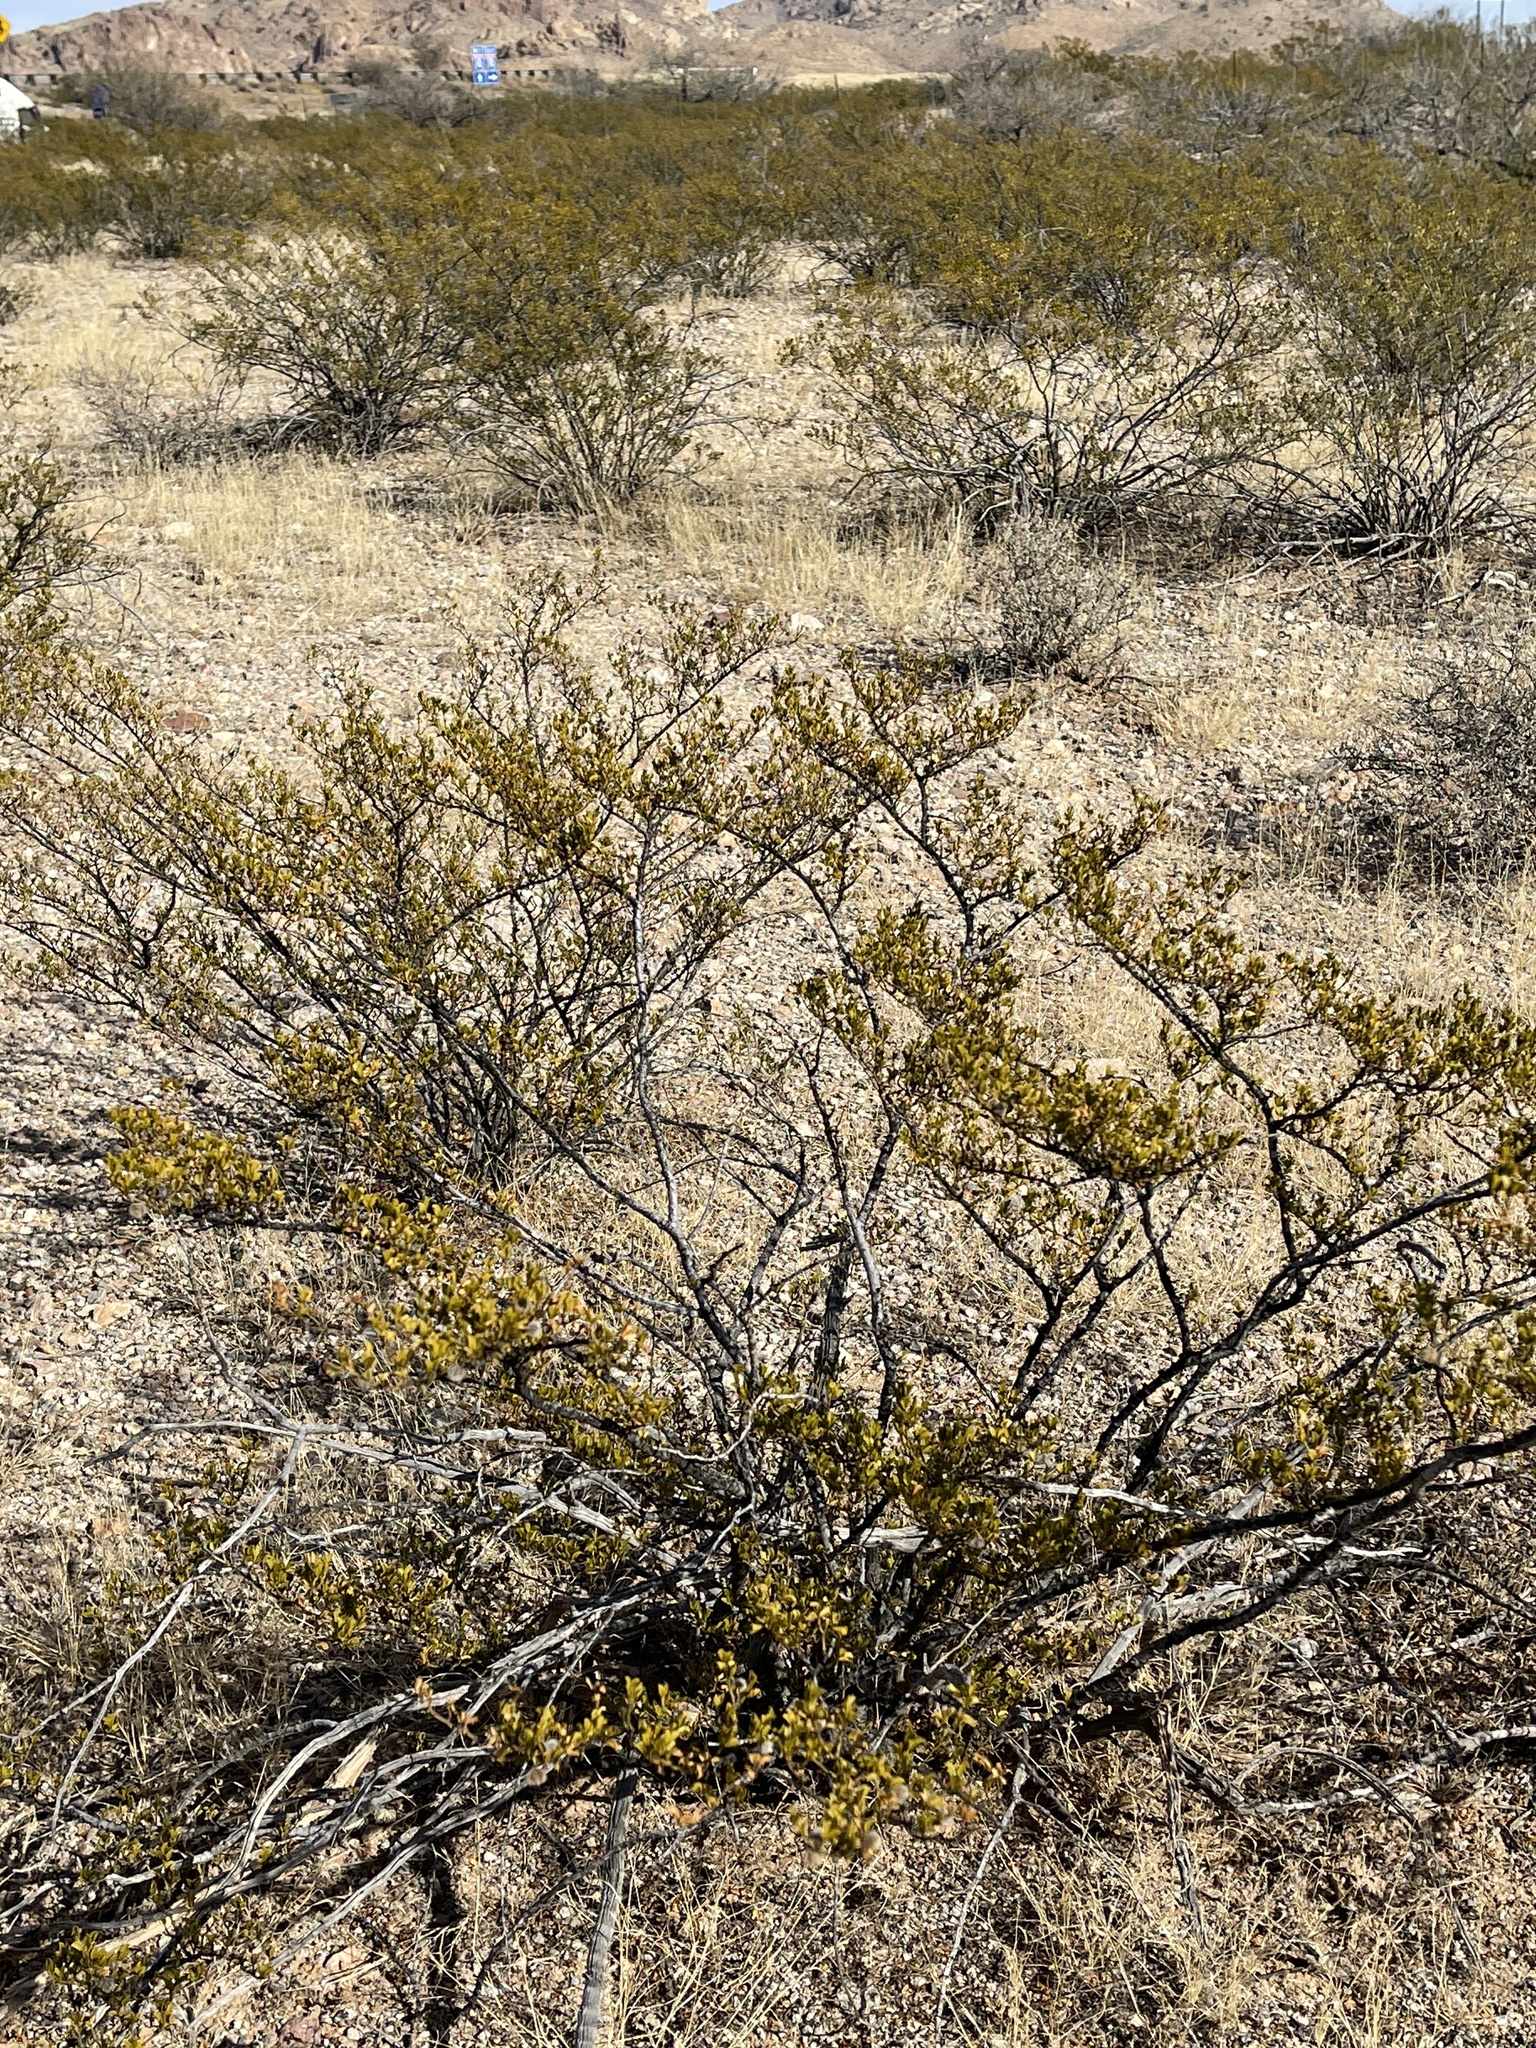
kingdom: Plantae
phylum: Tracheophyta
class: Magnoliopsida
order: Zygophyllales
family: Zygophyllaceae
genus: Larrea
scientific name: Larrea tridentata
